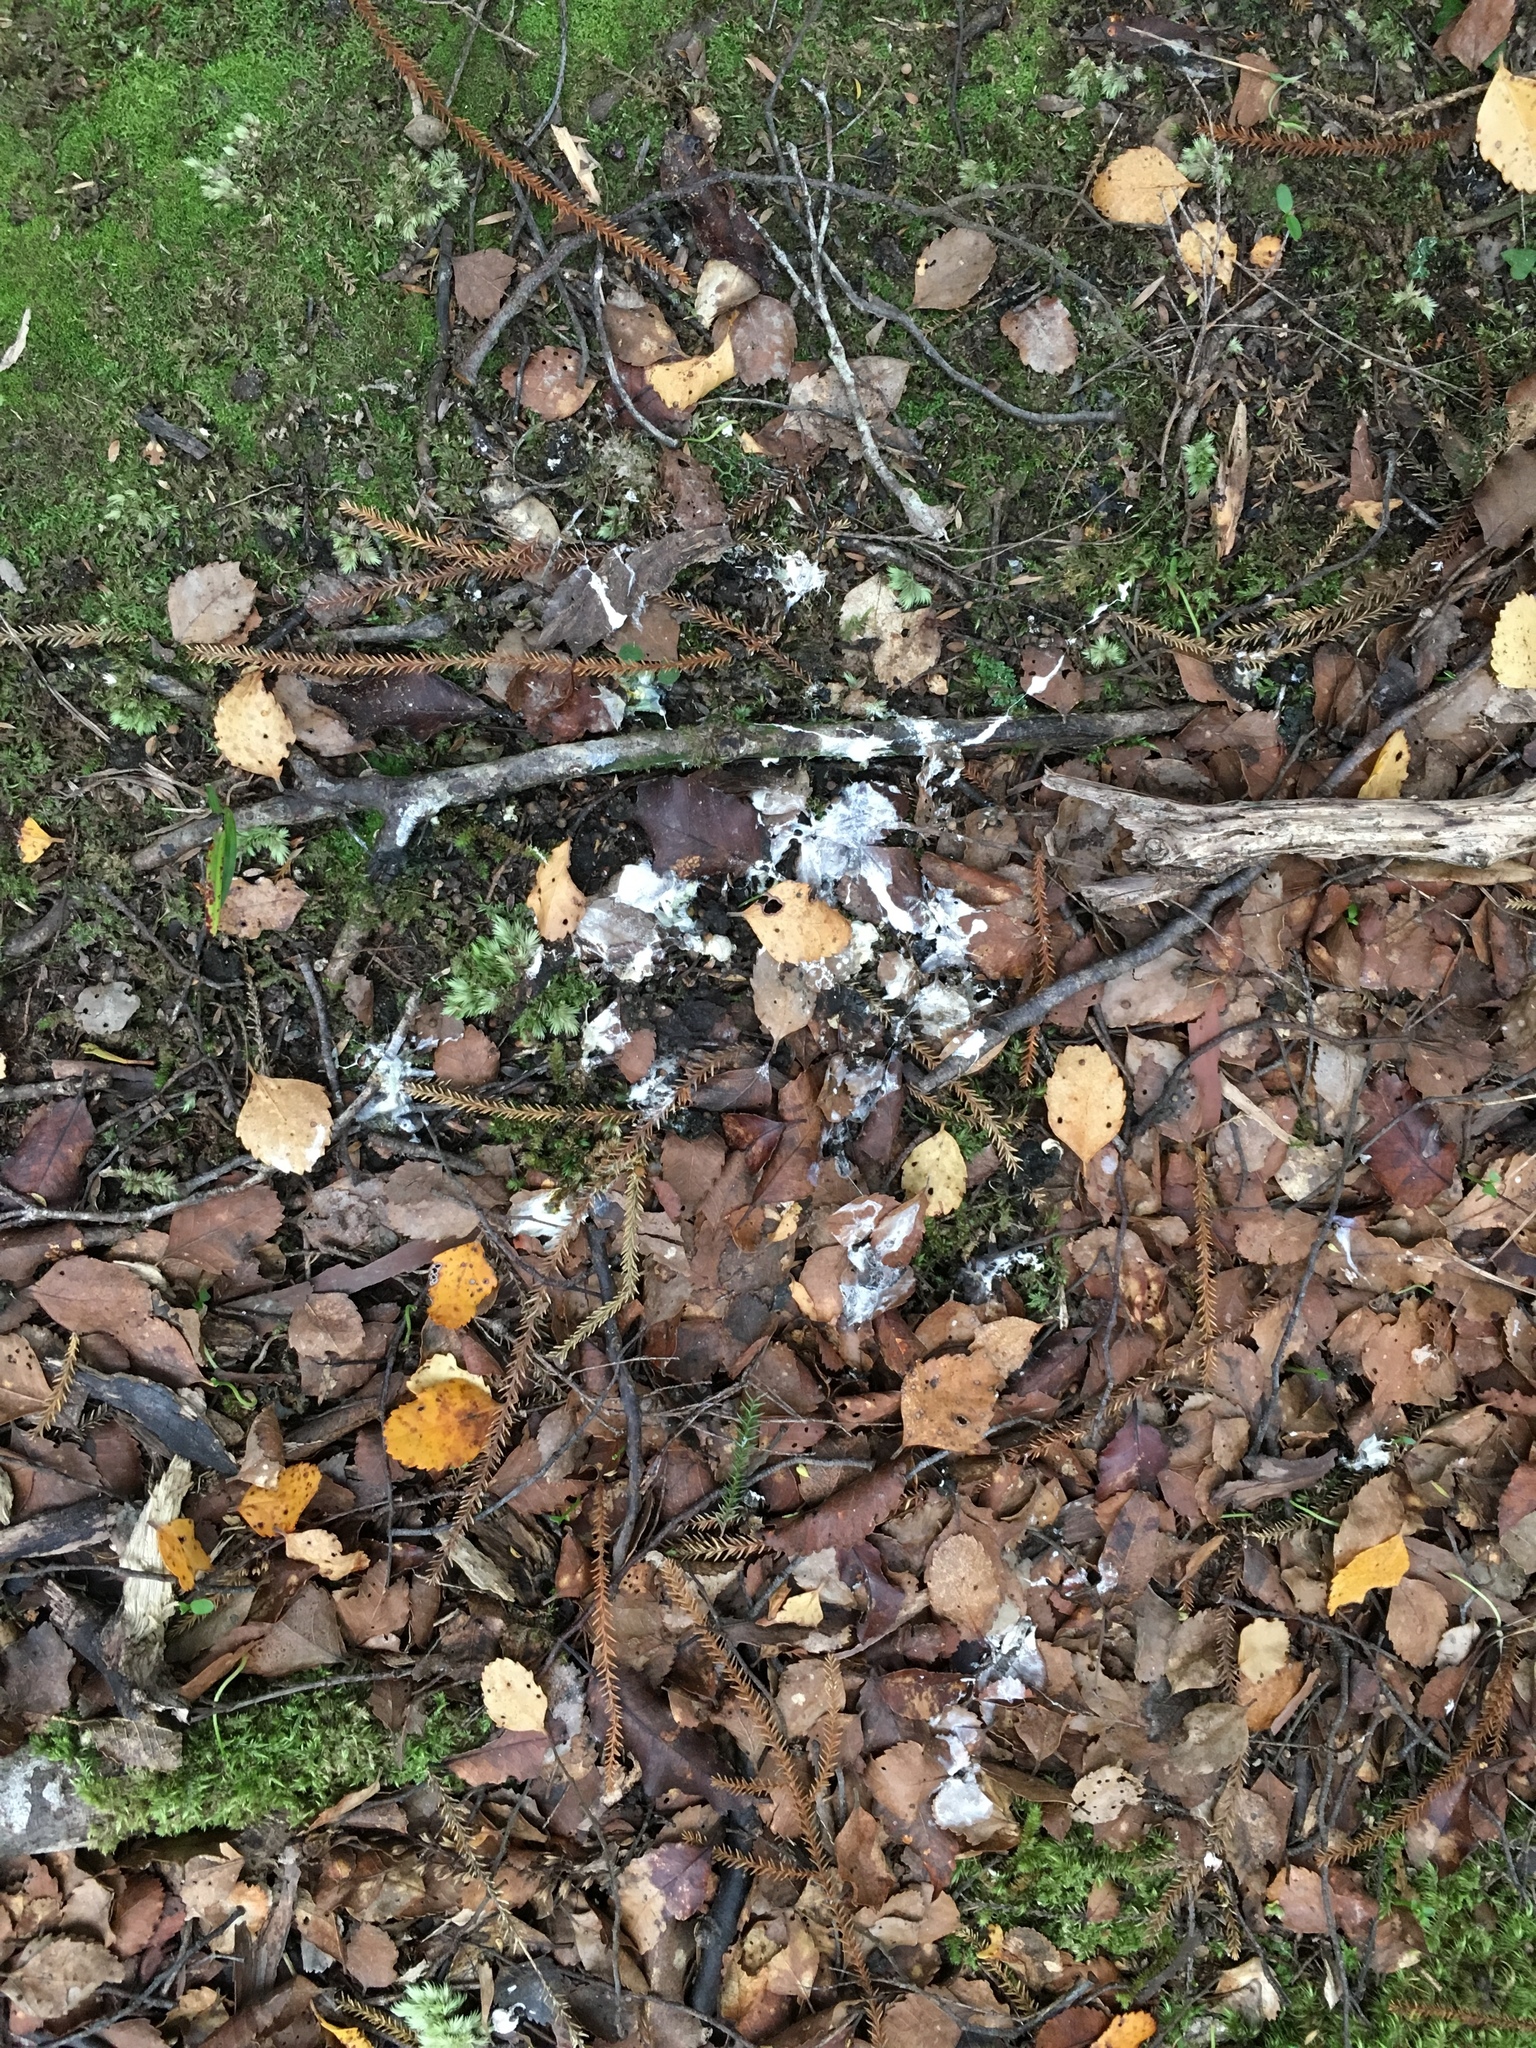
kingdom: Animalia
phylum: Chordata
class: Aves
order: Apterygiformes
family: Apterygidae
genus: Apteryx
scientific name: Apteryx mantelli
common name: North island brown kiwi
